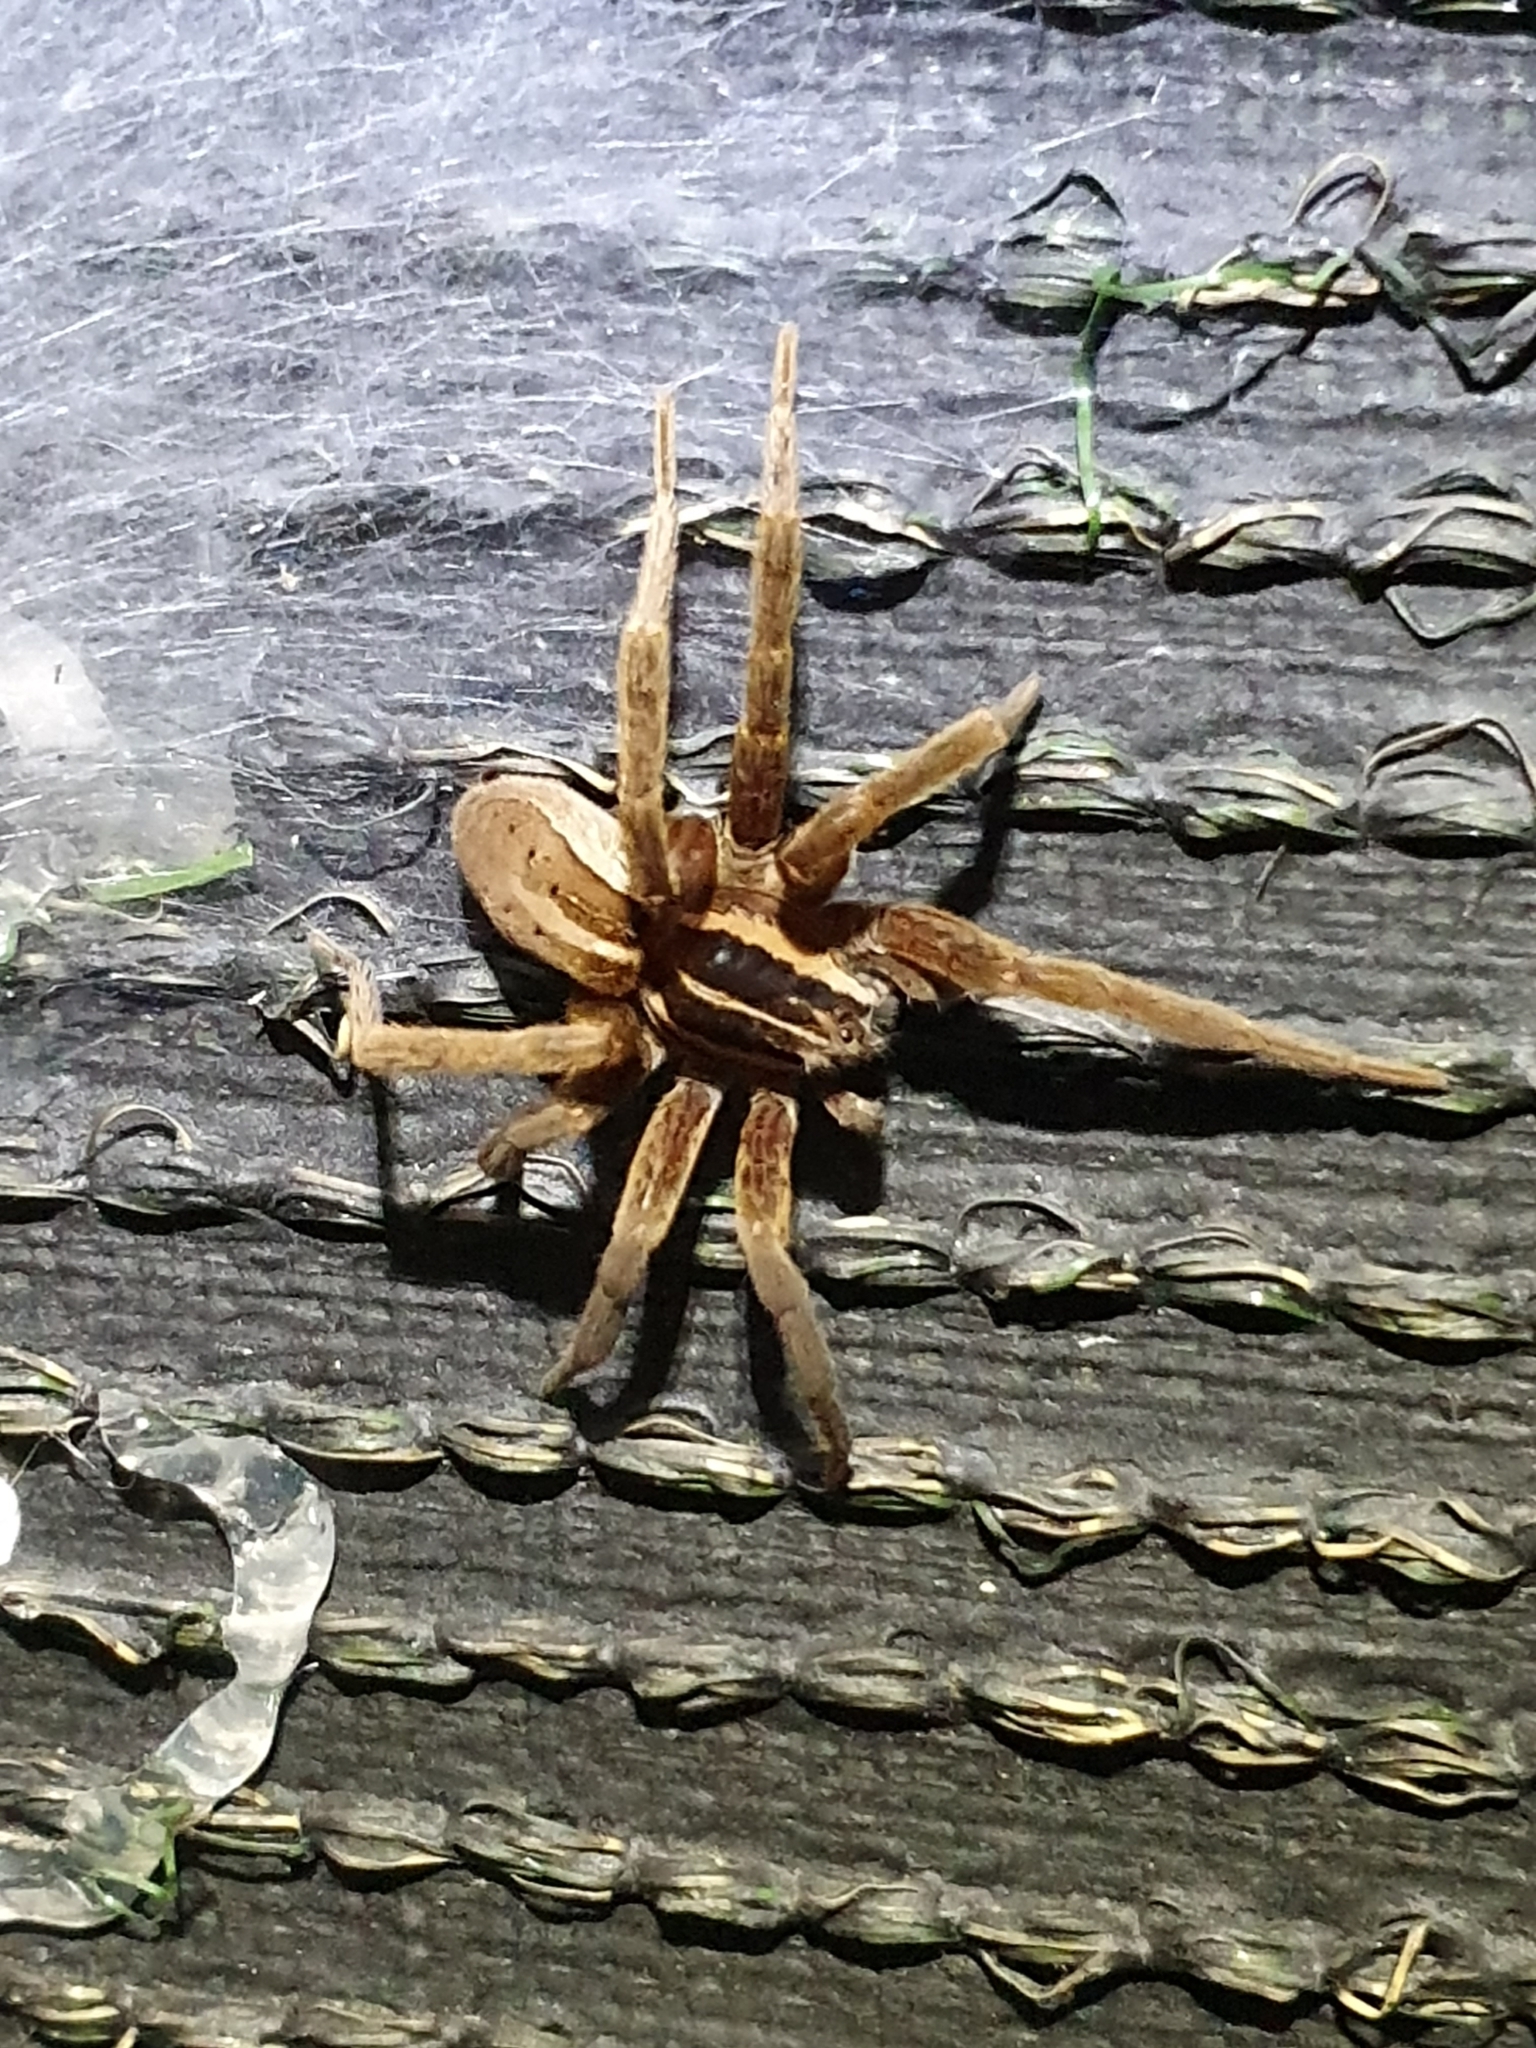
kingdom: Animalia
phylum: Arthropoda
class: Arachnida
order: Araneae
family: Pisauridae
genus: Dolomedes
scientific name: Dolomedes minor
